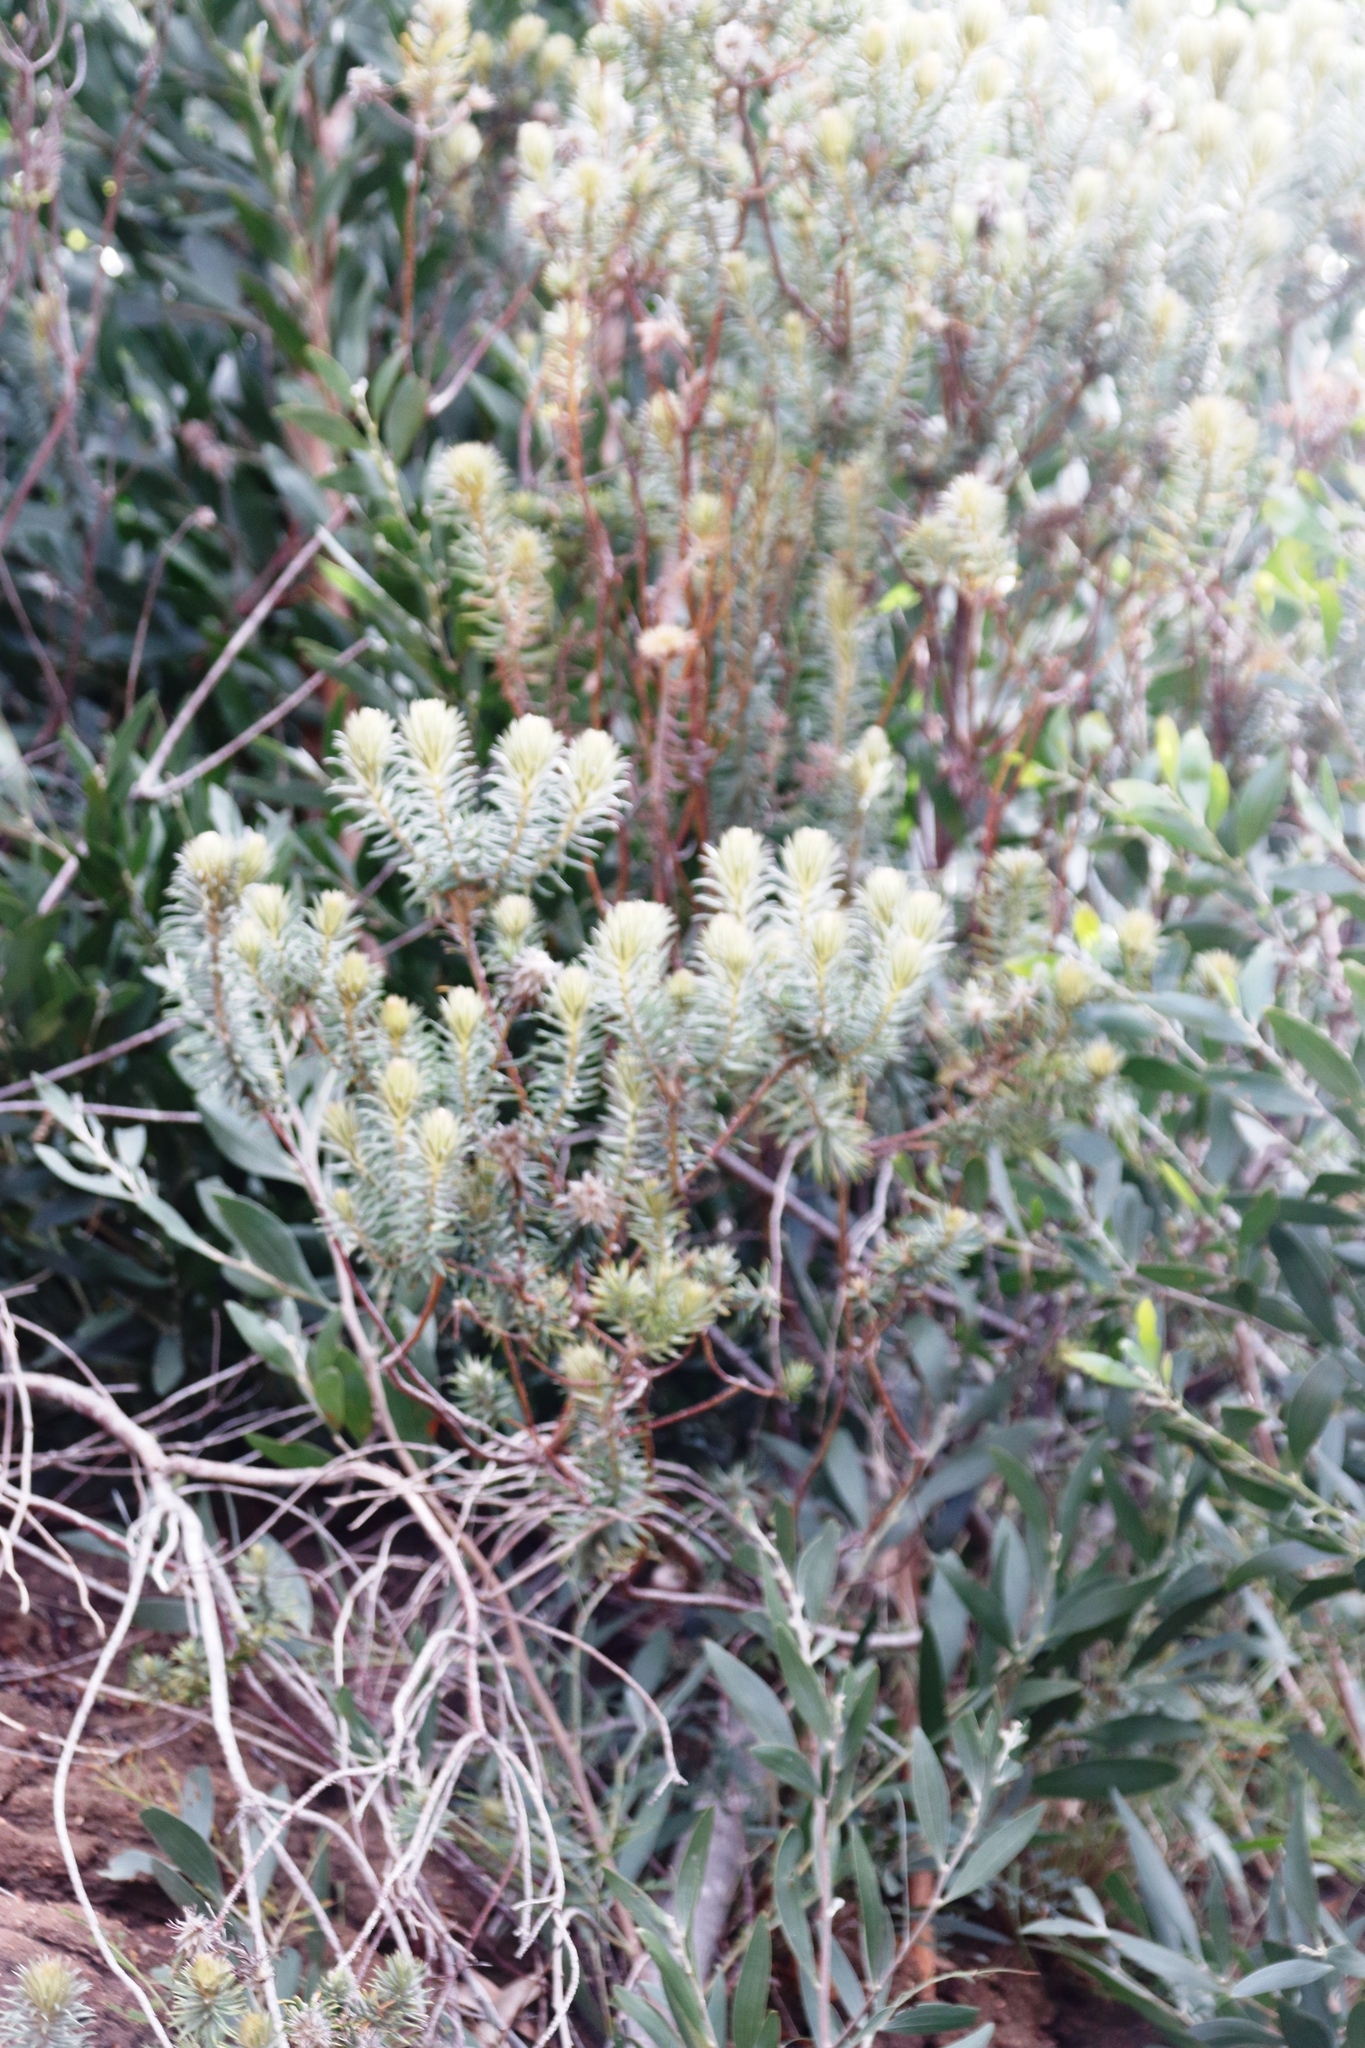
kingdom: Plantae
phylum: Tracheophyta
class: Magnoliopsida
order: Rosales
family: Rhamnaceae
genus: Phylica
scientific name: Phylica pubescens
